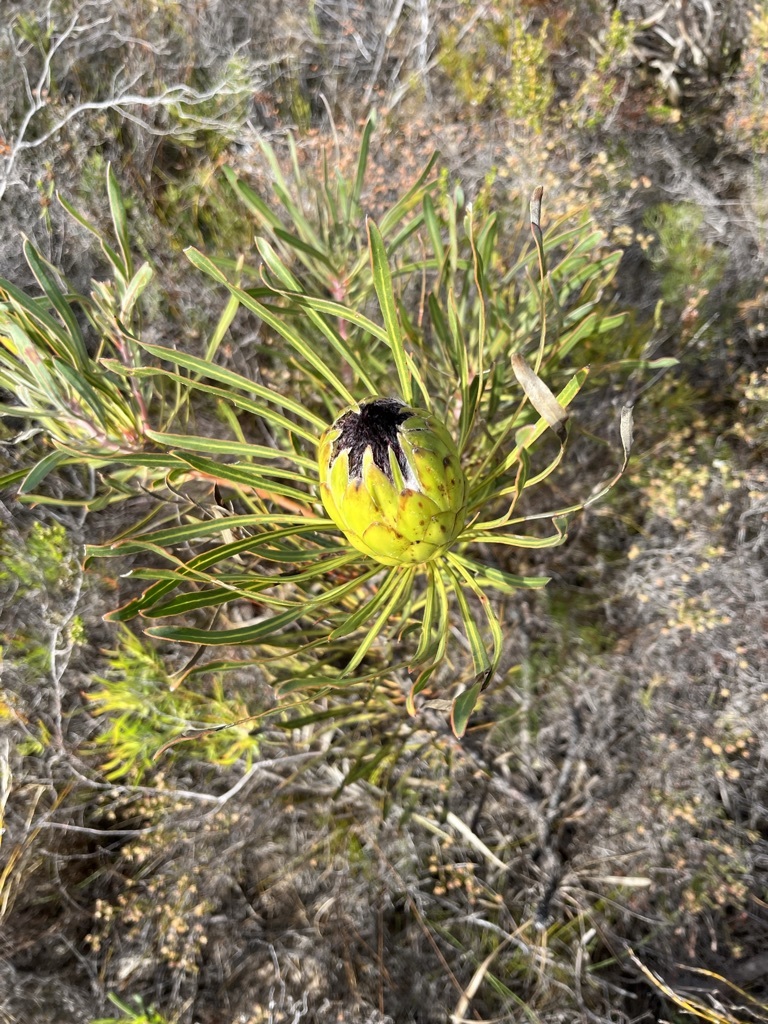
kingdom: Plantae
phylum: Tracheophyta
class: Magnoliopsida
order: Proteales
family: Proteaceae
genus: Protea
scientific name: Protea longifolia
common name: Long-leaf sugarbush
